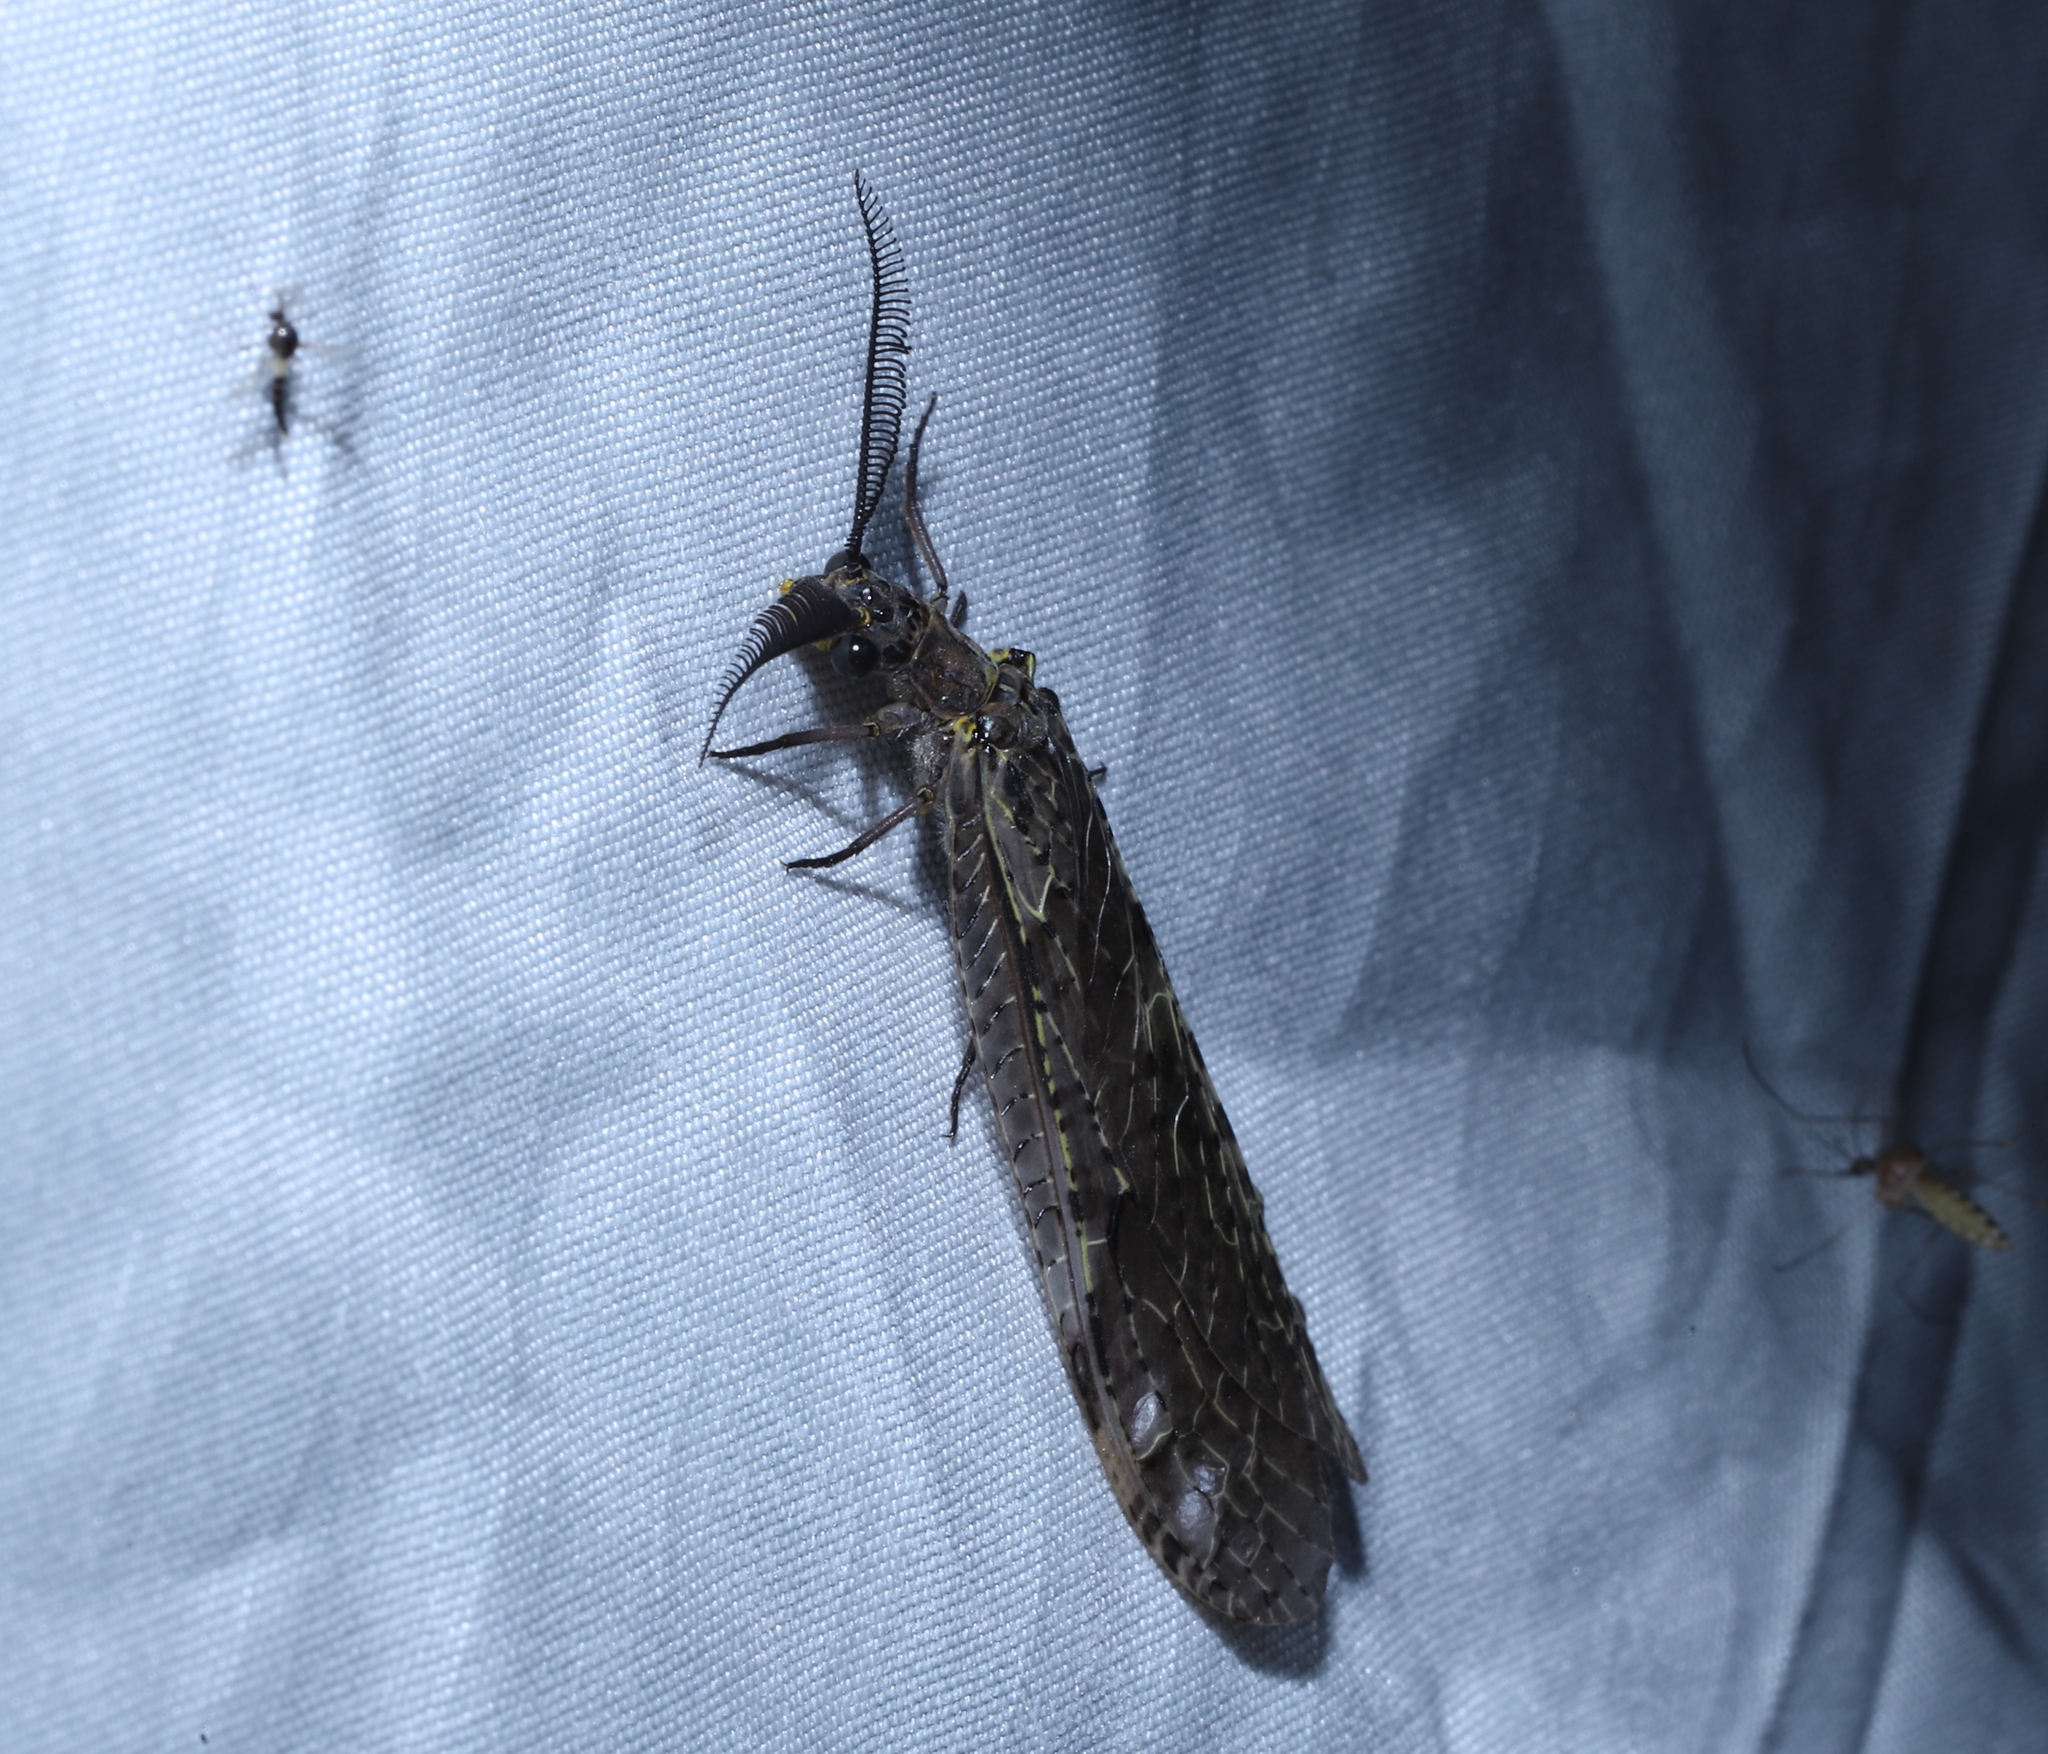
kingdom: Animalia
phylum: Arthropoda
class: Insecta
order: Megaloptera
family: Corydalidae
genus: Chauliodes
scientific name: Chauliodes rastricornis
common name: Spring fishfly
